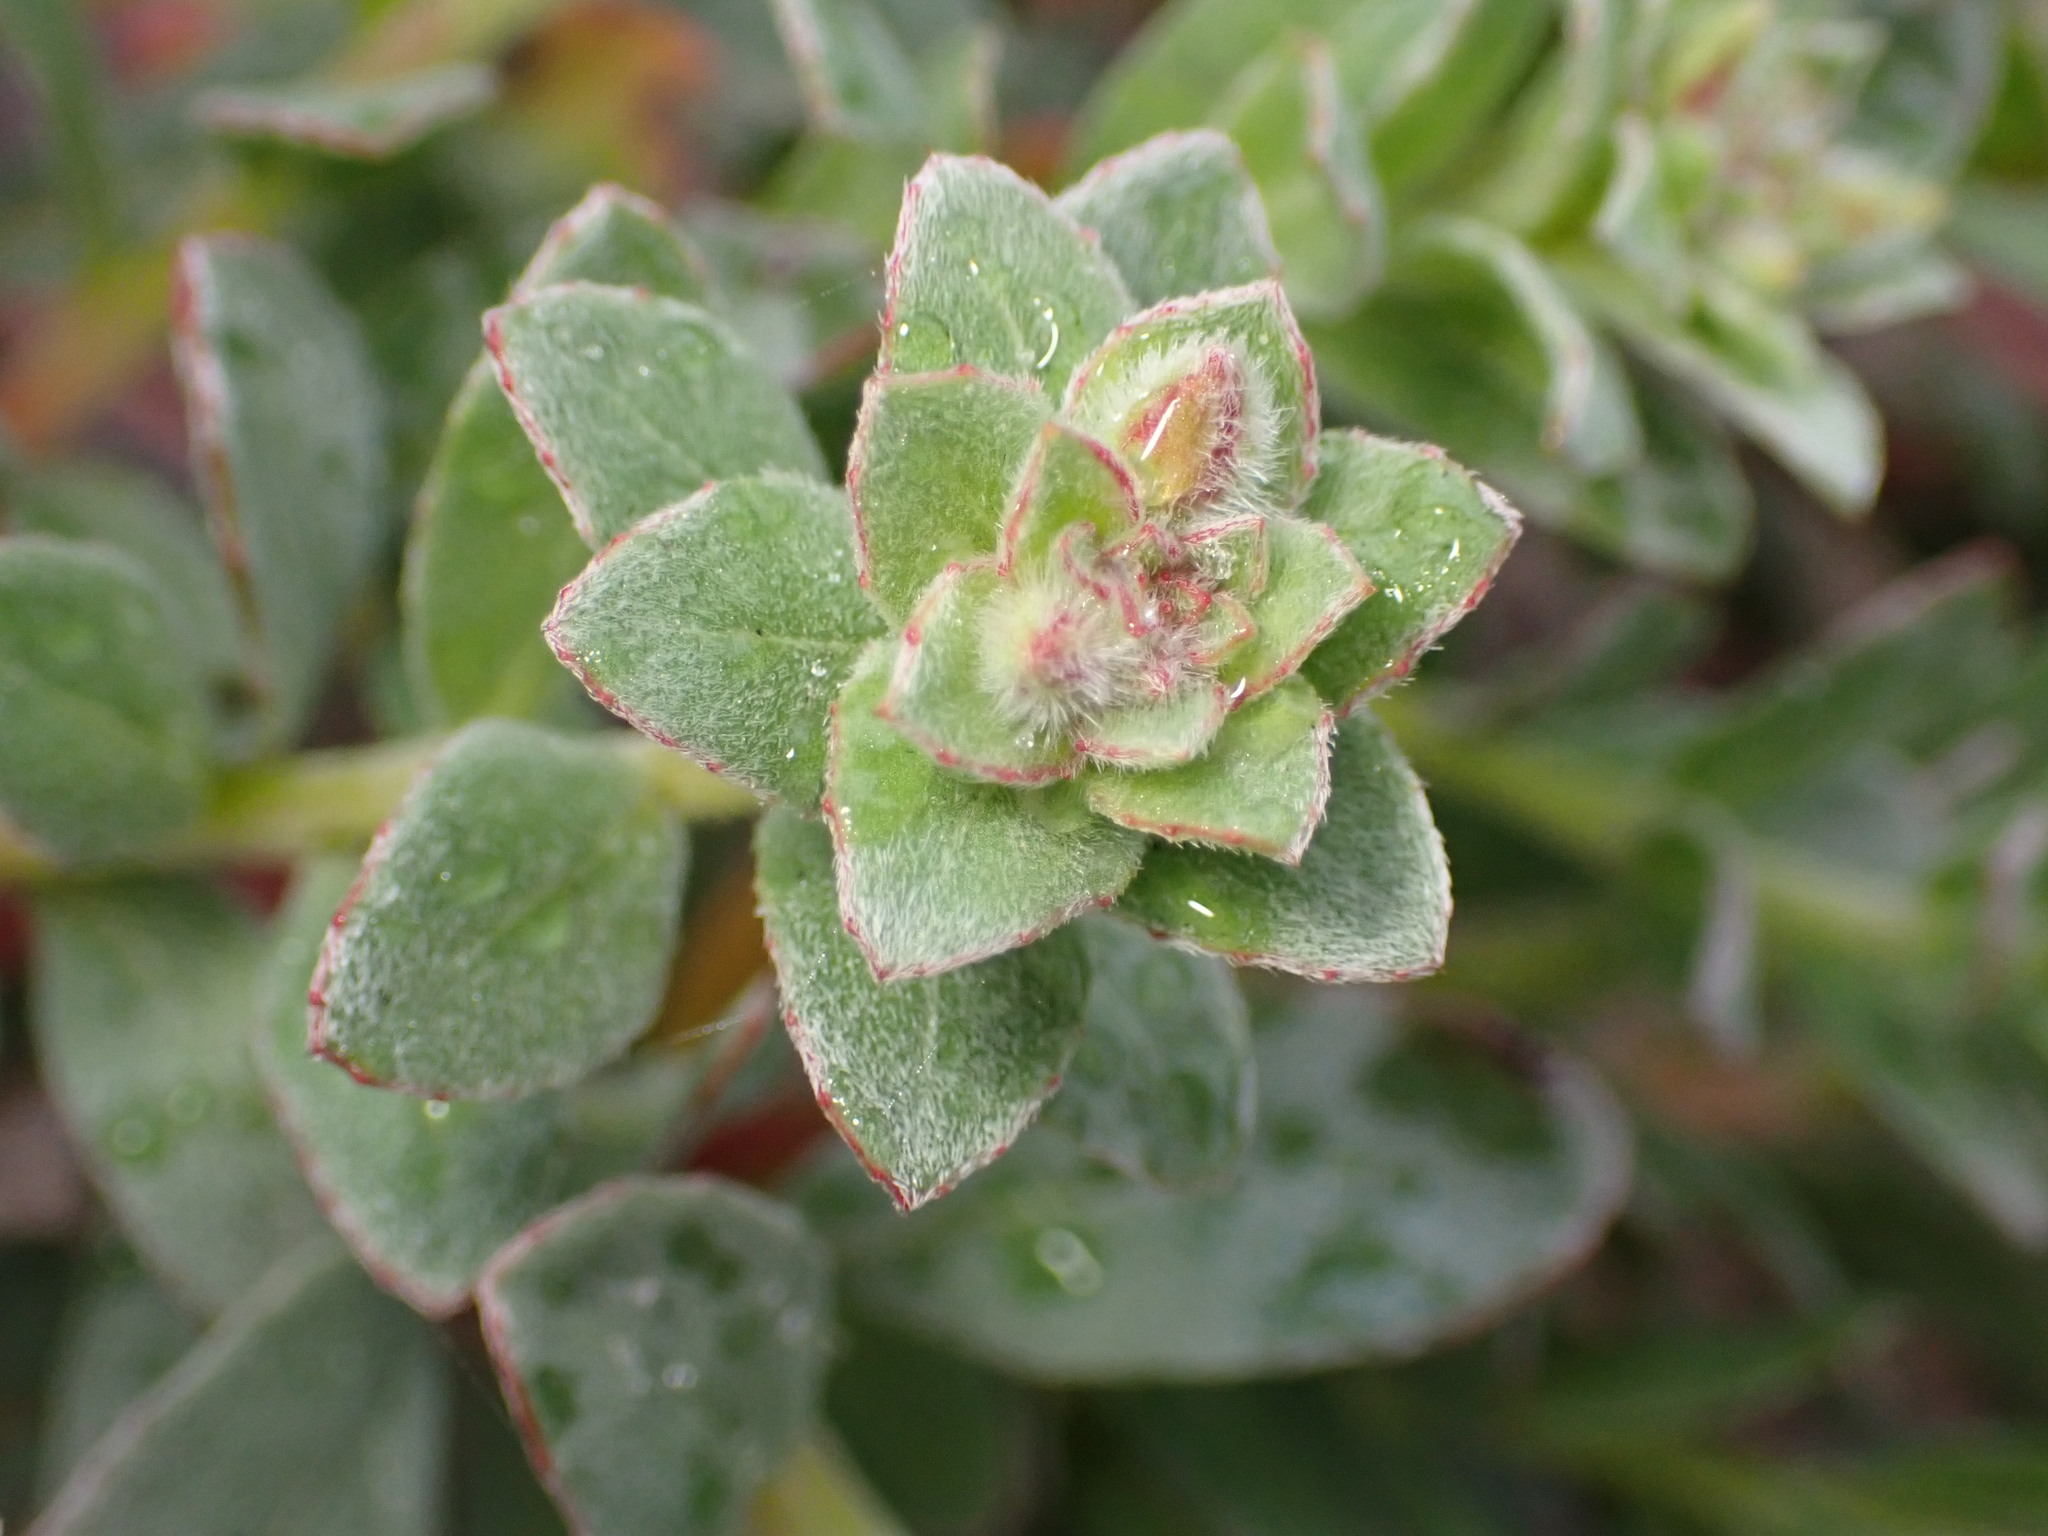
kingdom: Plantae
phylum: Tracheophyta
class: Magnoliopsida
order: Myrtales
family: Onagraceae
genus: Camissoniopsis
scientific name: Camissoniopsis cheiranthifolia
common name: Beach suncup
